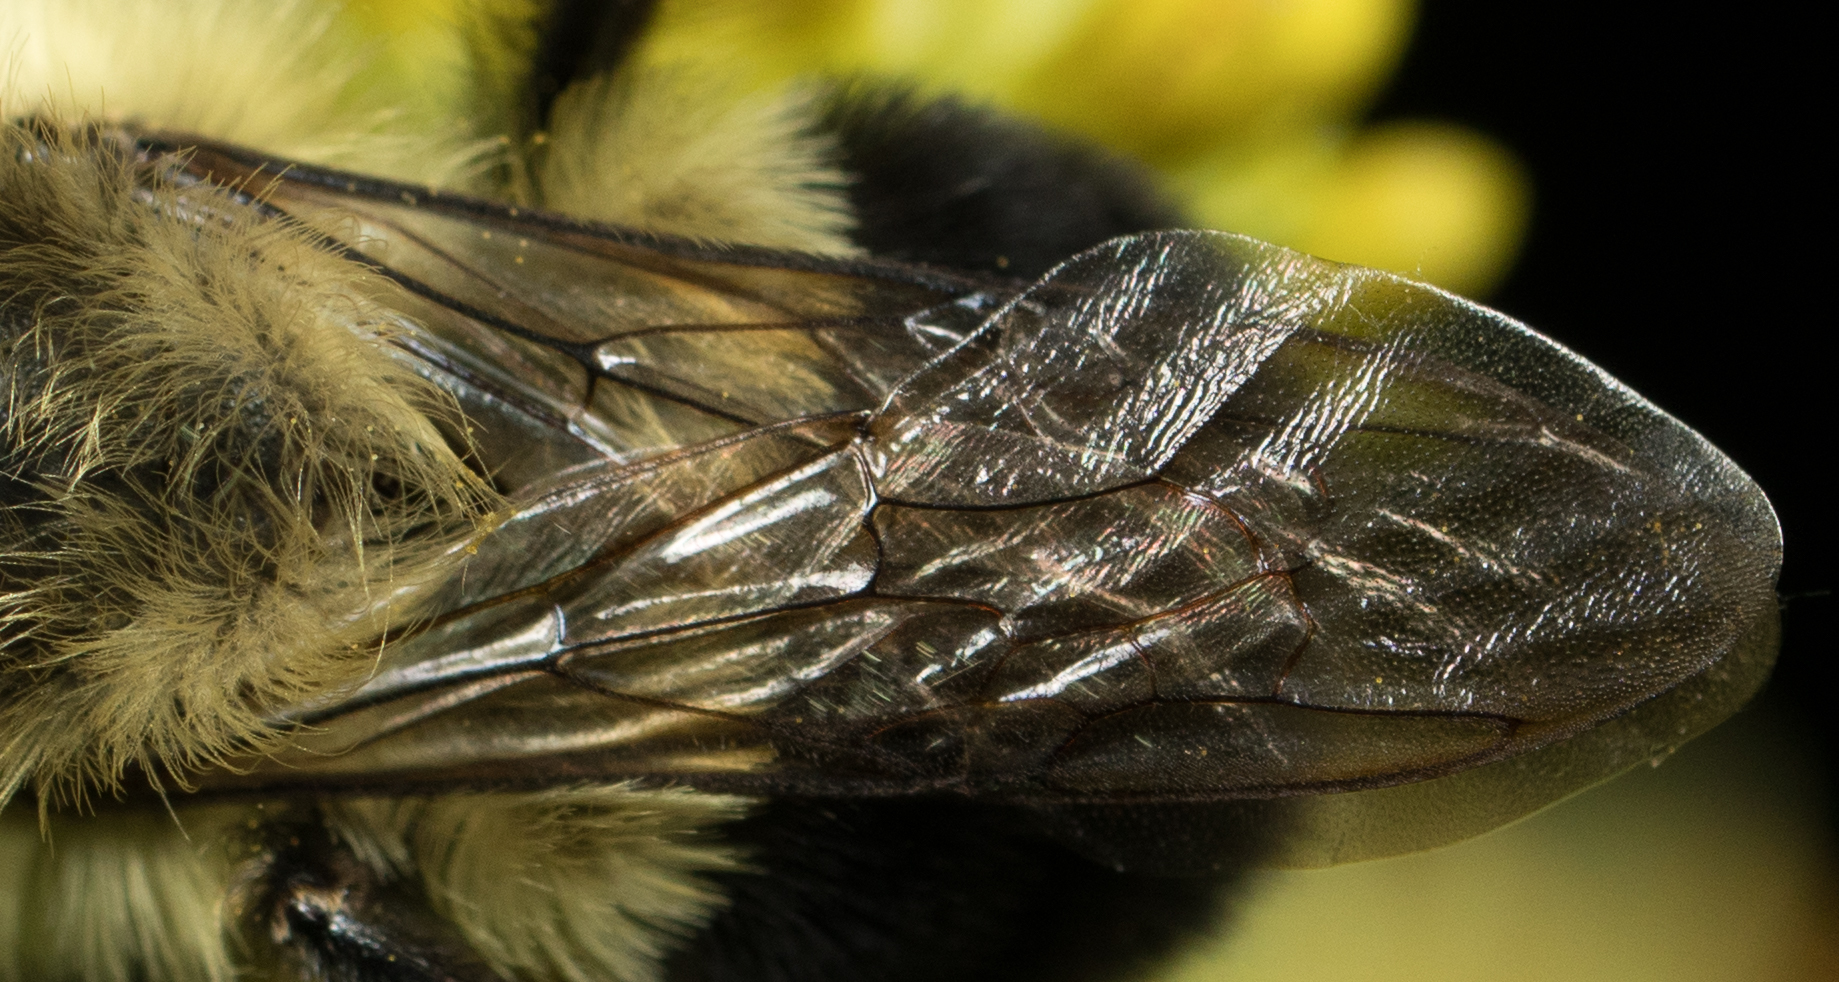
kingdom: Animalia
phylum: Arthropoda
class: Insecta
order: Hymenoptera
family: Apidae
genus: Bombus
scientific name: Bombus impatiens
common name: Common eastern bumble bee
